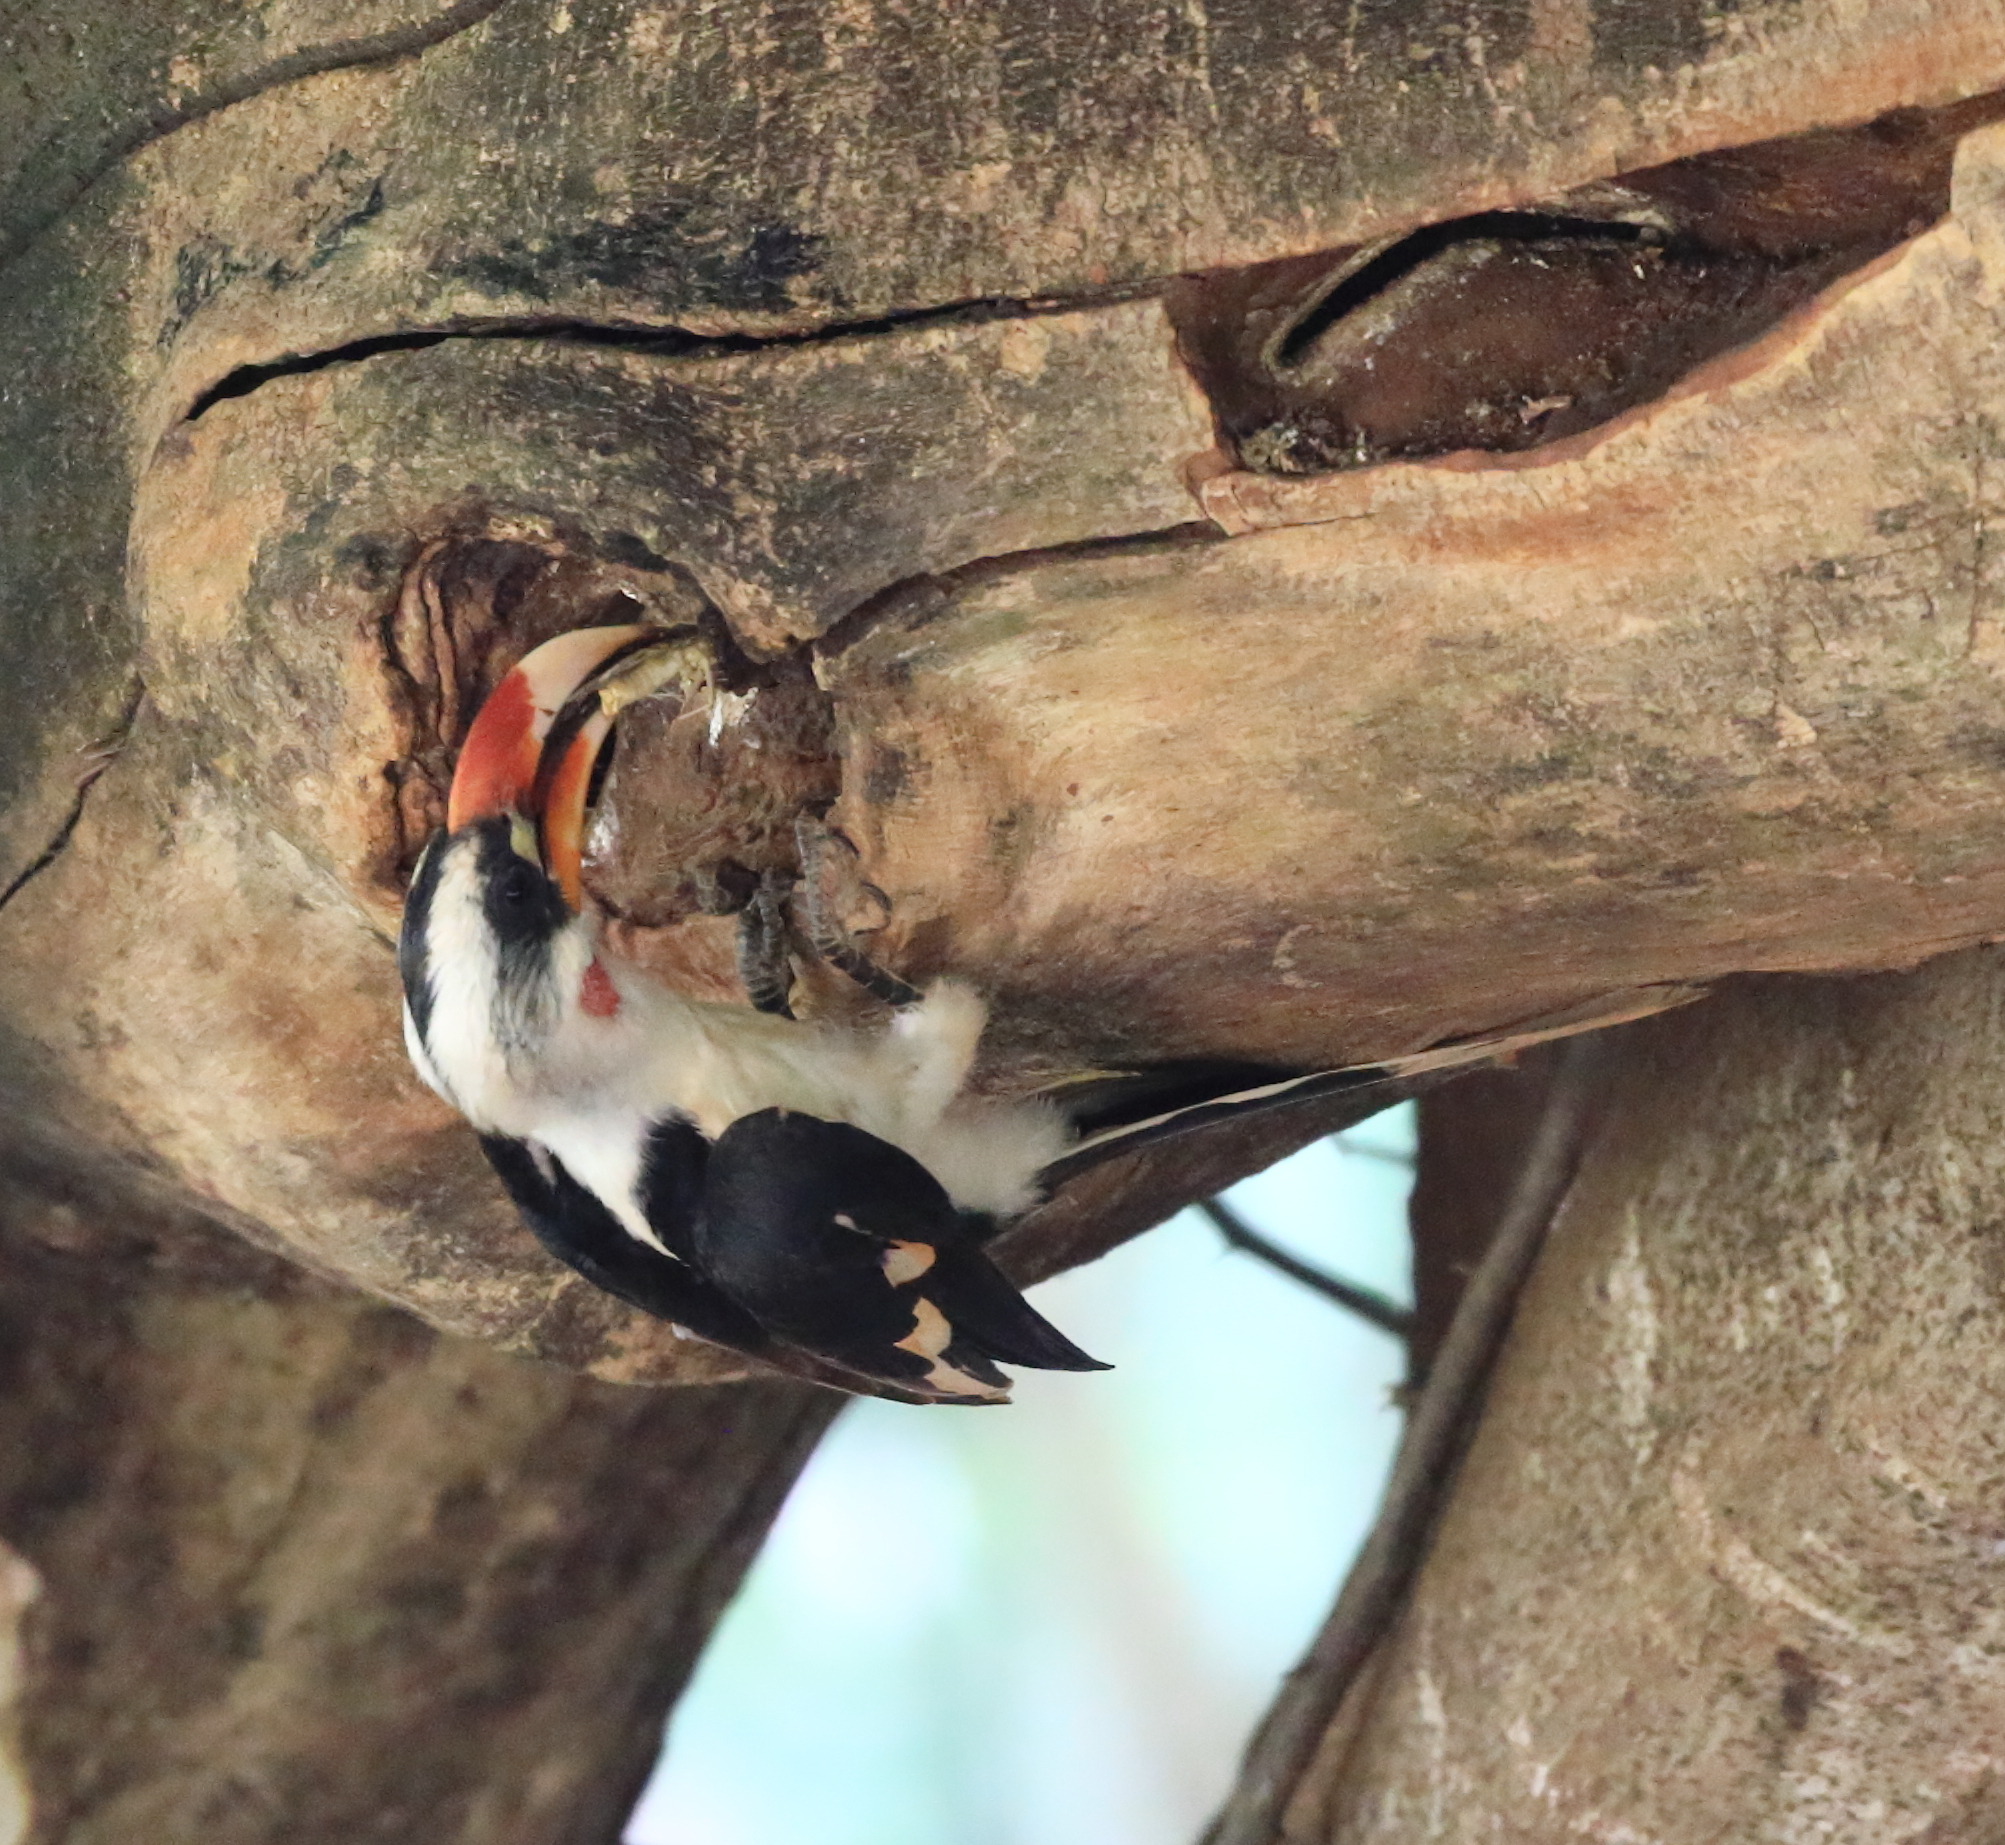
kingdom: Animalia
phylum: Chordata
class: Aves
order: Bucerotiformes
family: Bucerotidae
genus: Tockus
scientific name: Tockus deckeni
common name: Von der decken's hornbill
